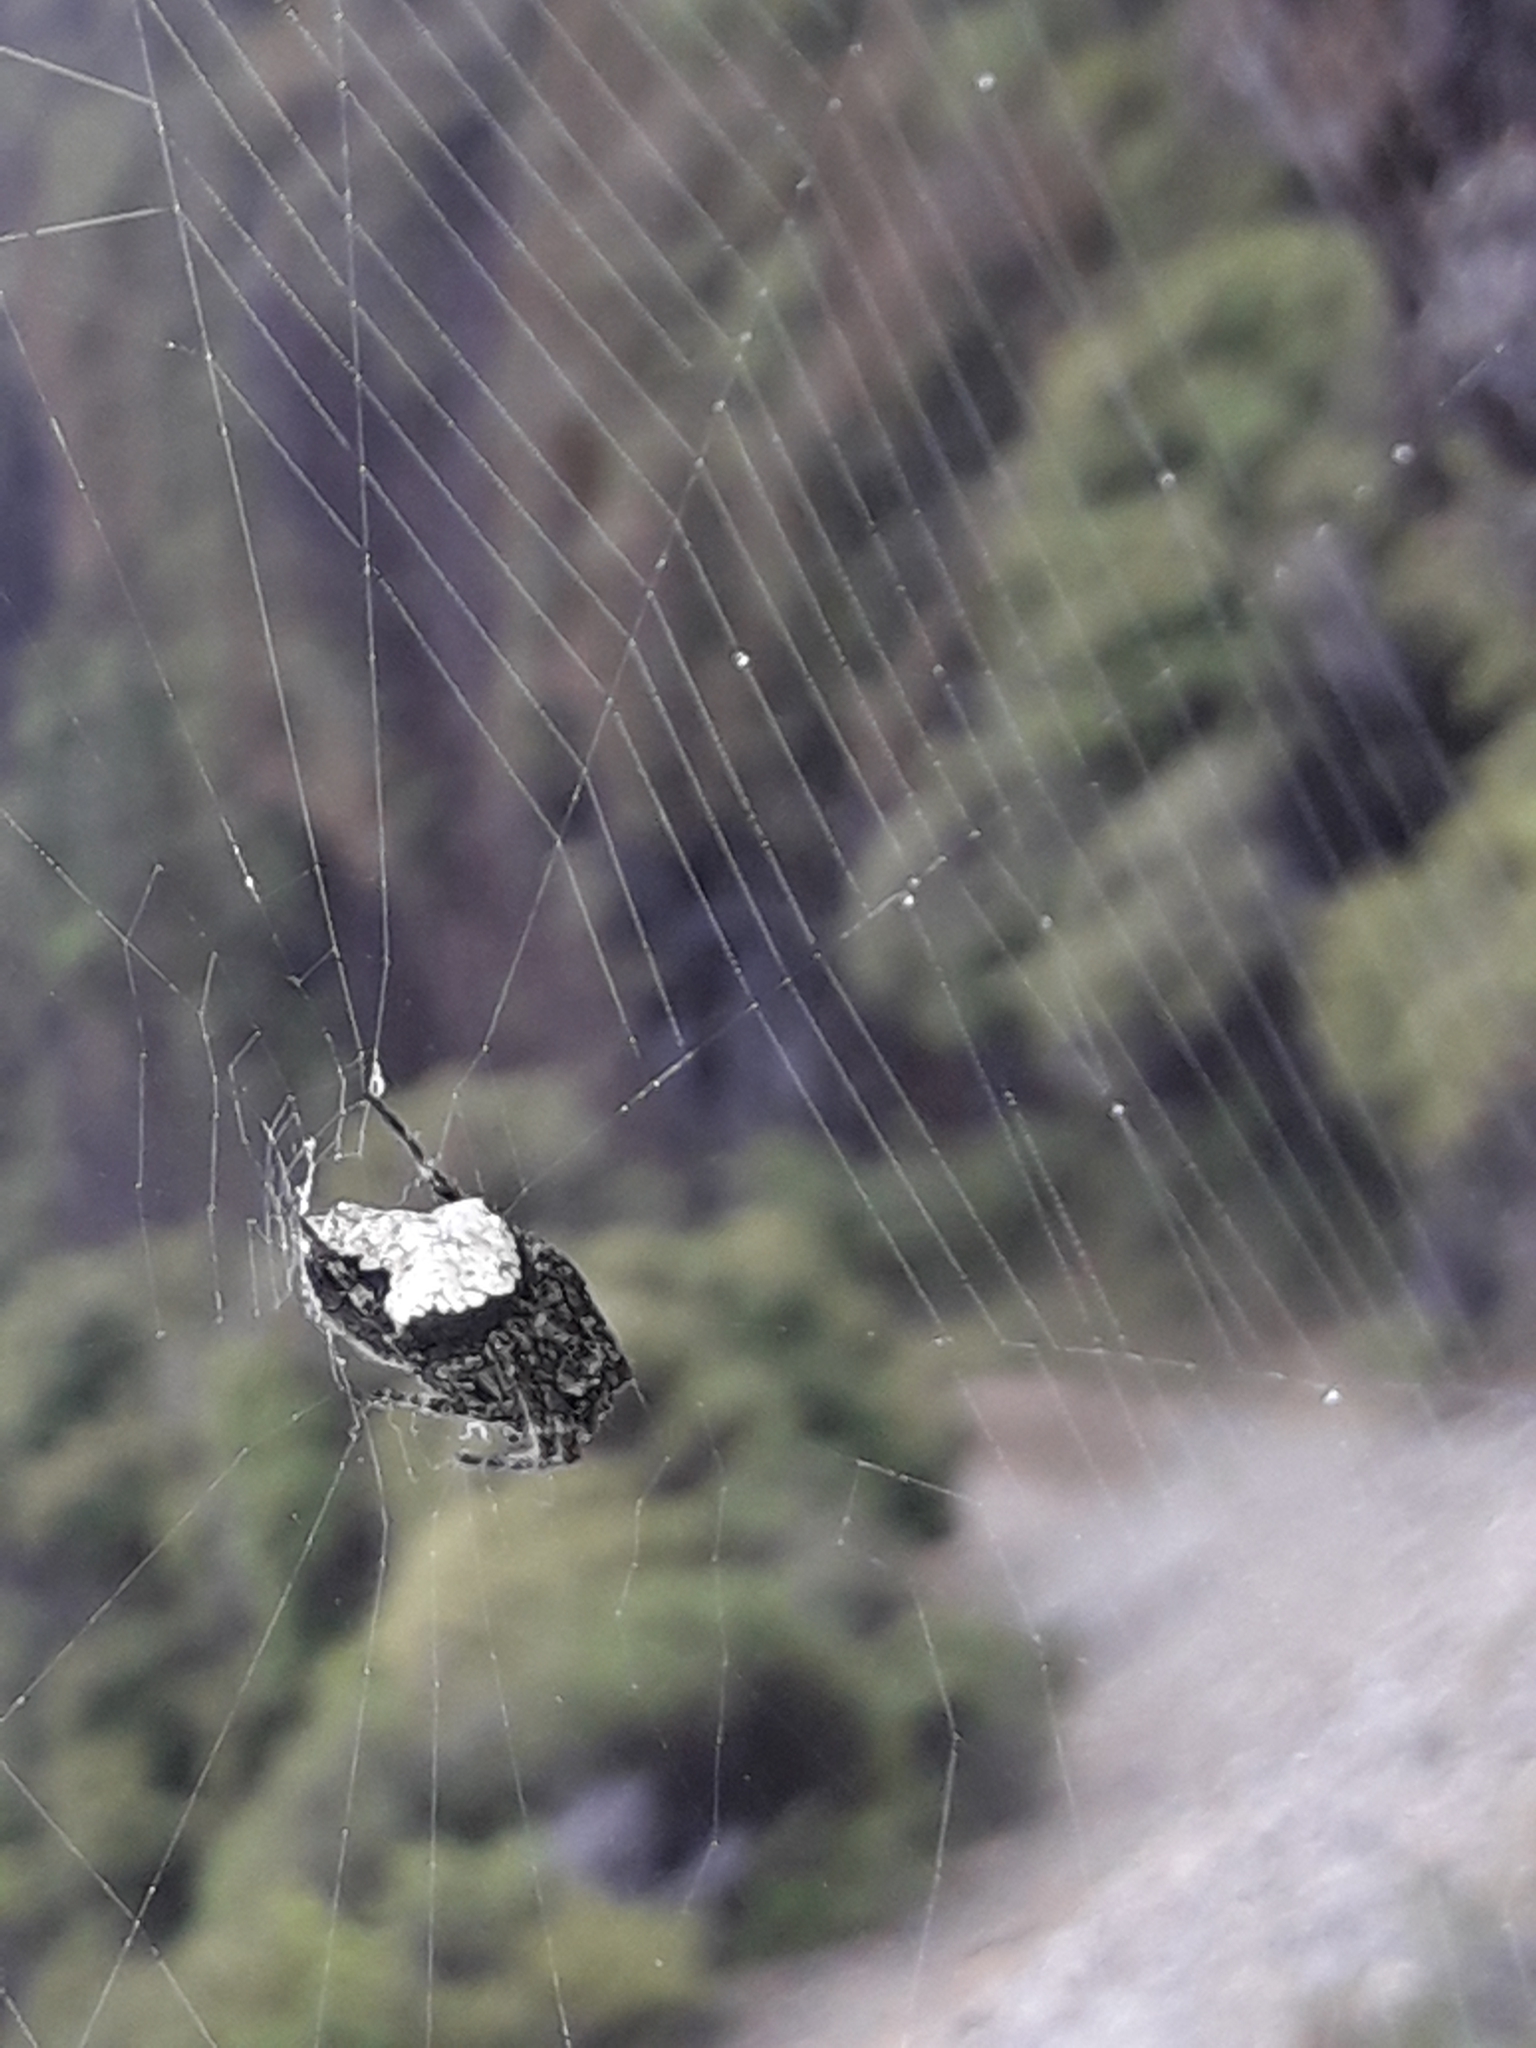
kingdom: Animalia
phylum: Arthropoda
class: Arachnida
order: Araneae
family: Araneidae
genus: Eriophora
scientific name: Eriophora pustulosa
